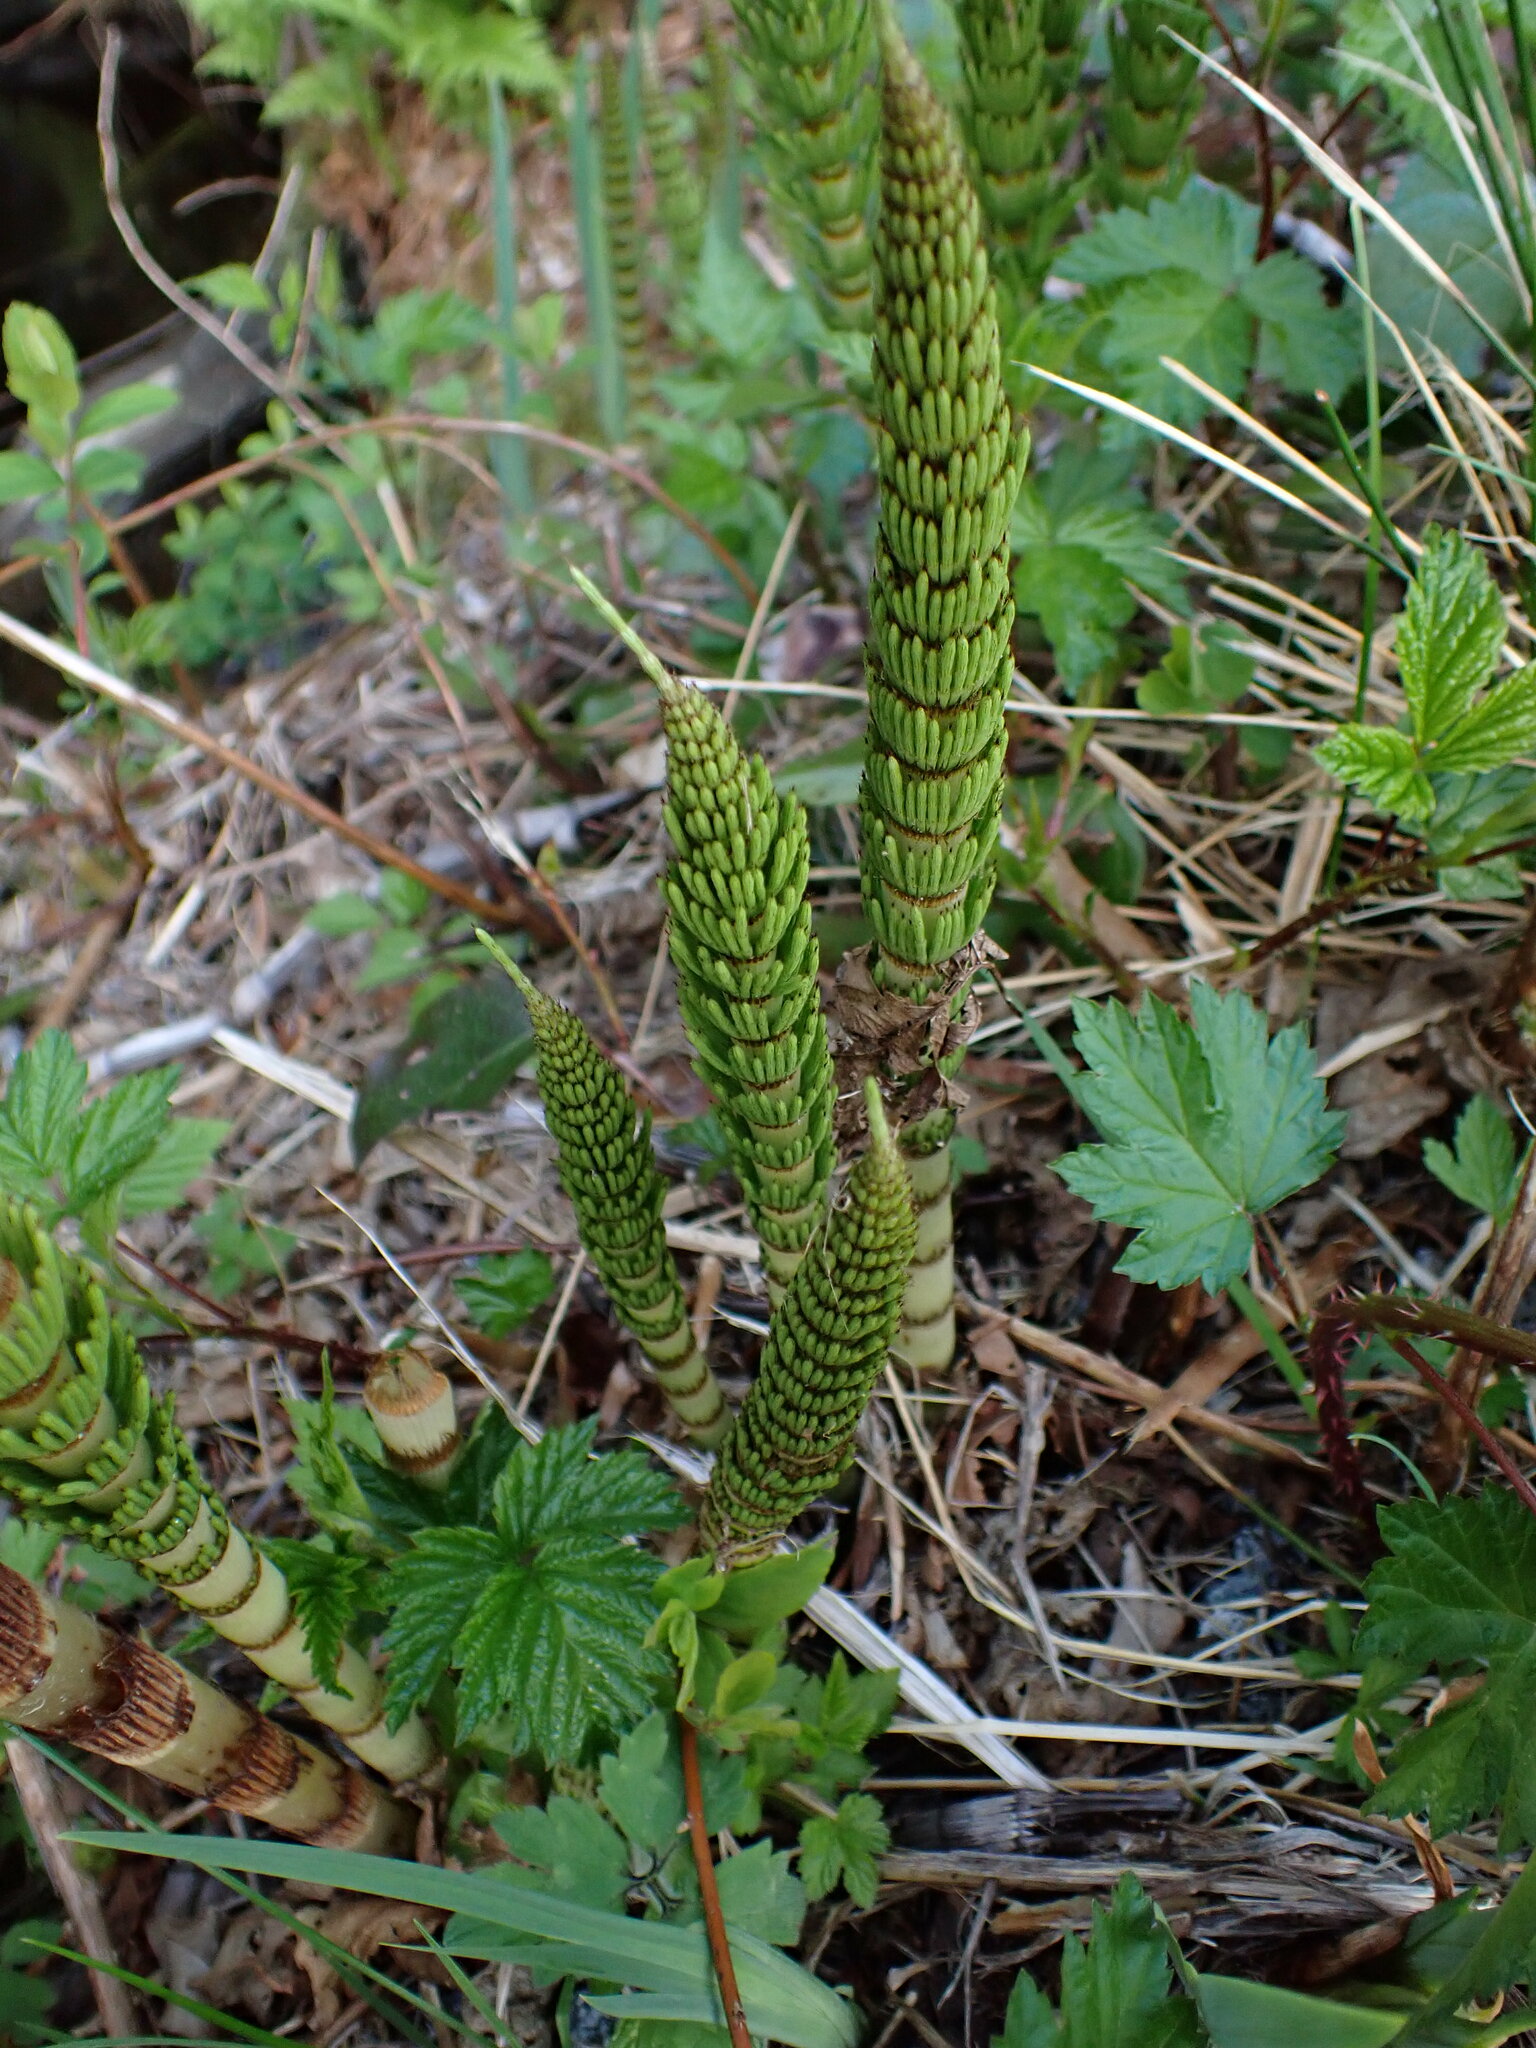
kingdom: Plantae
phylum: Tracheophyta
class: Polypodiopsida
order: Equisetales
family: Equisetaceae
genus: Equisetum
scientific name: Equisetum braunii
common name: Braun's horsetail
